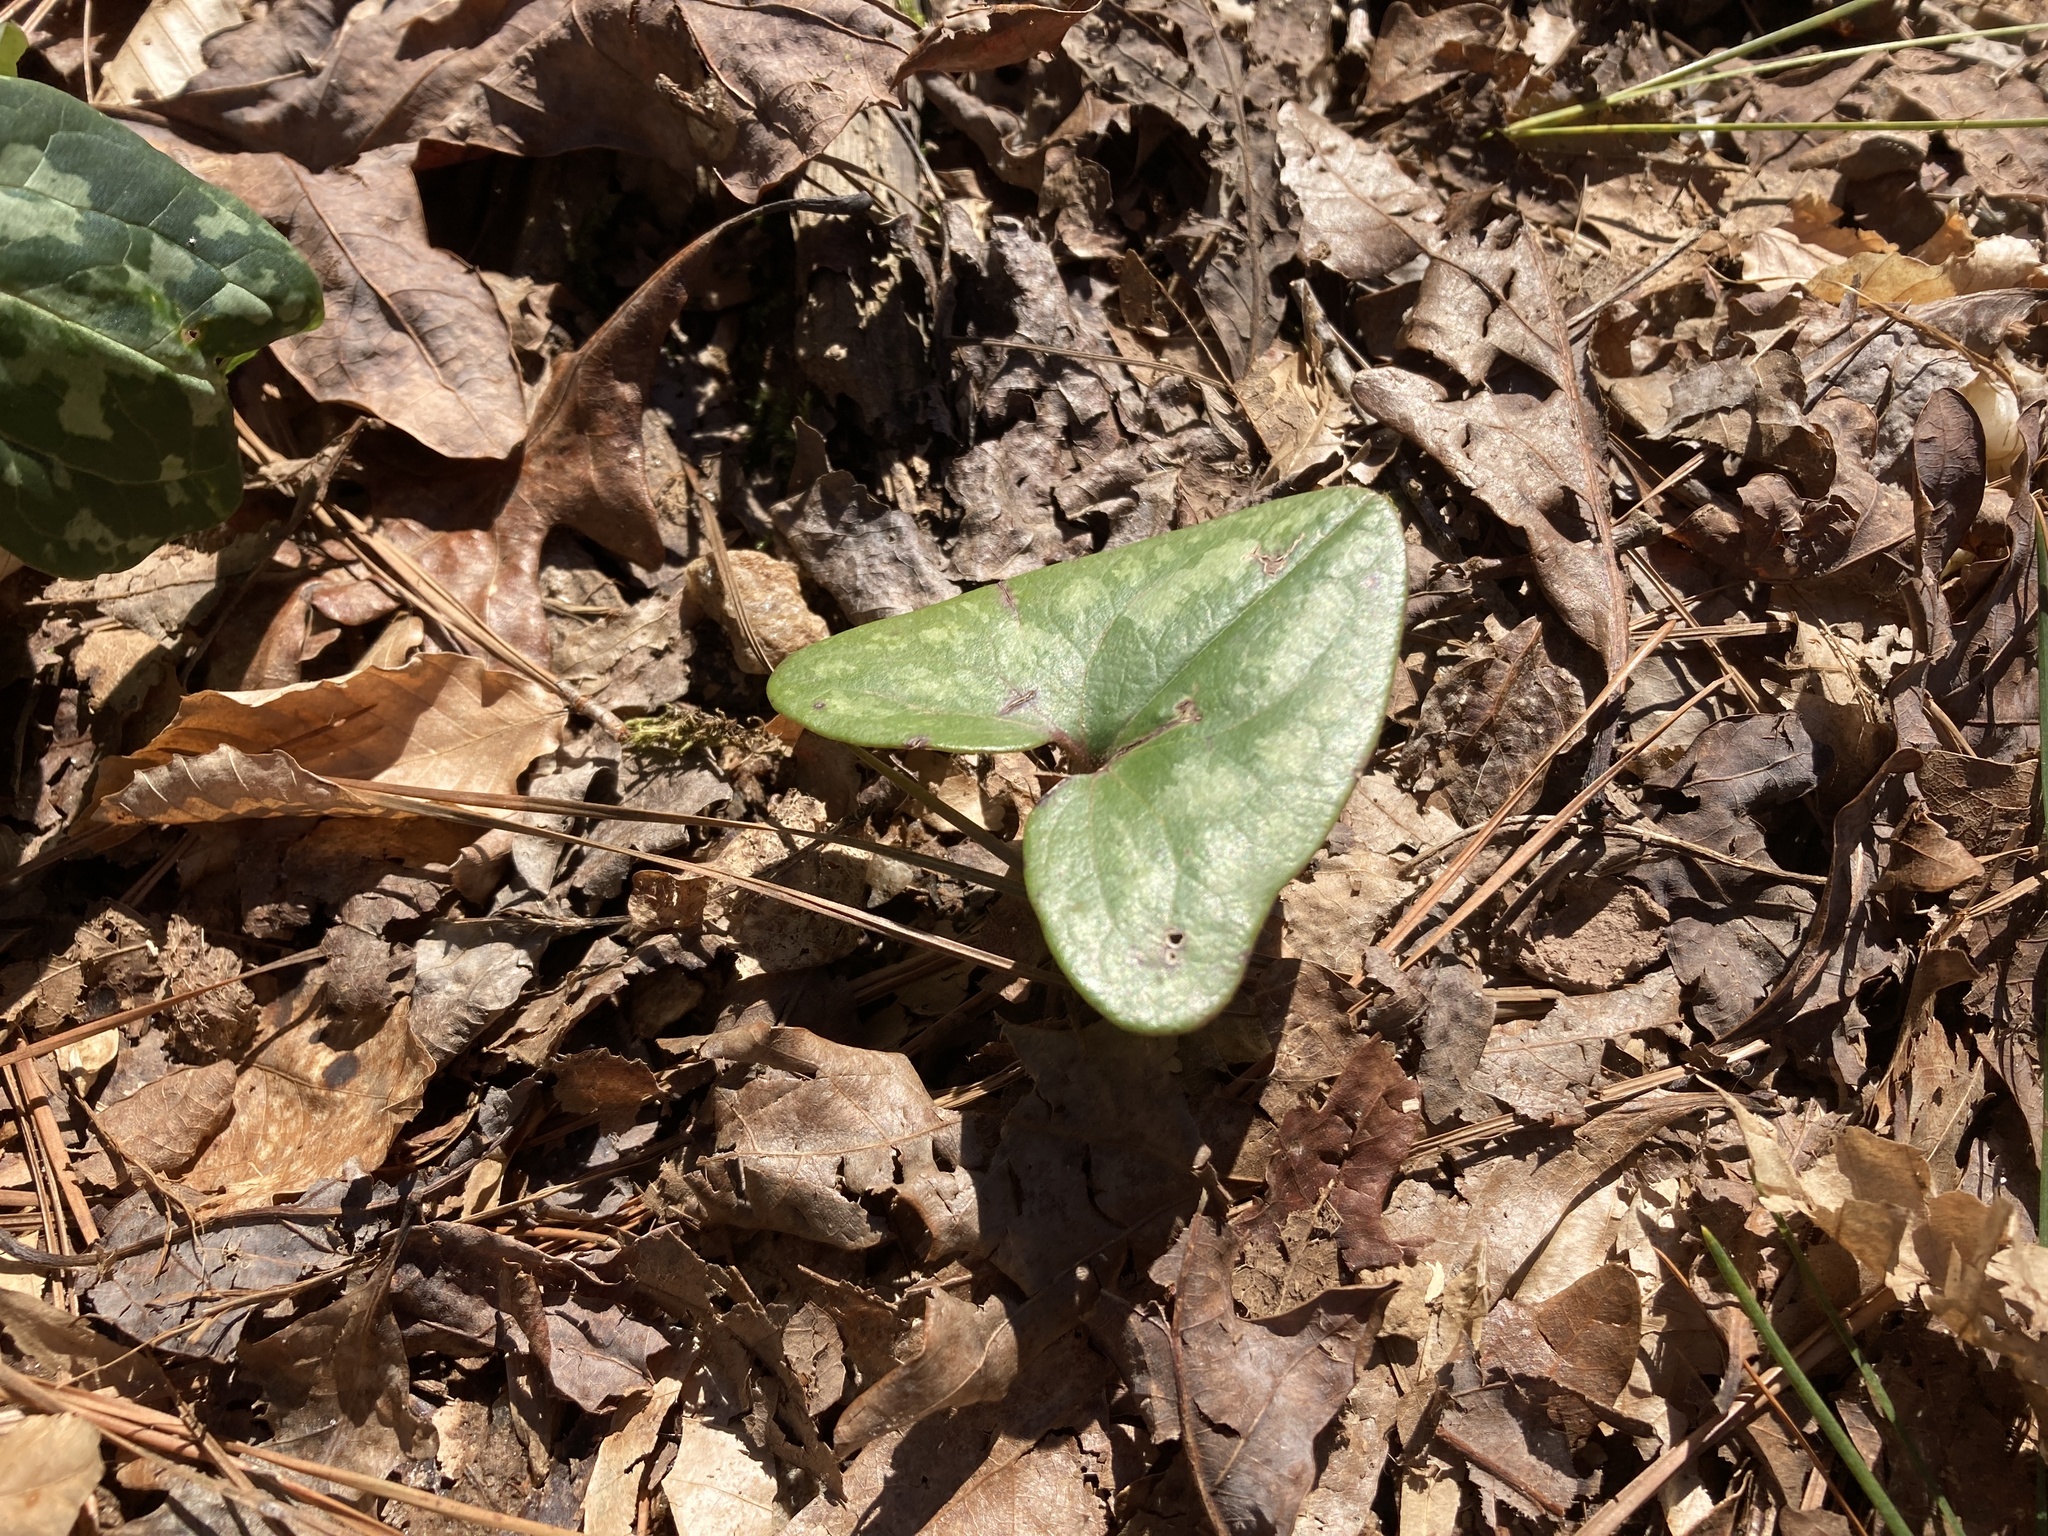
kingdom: Plantae
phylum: Tracheophyta
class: Magnoliopsida
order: Piperales
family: Aristolochiaceae
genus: Hexastylis
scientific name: Hexastylis arifolia
